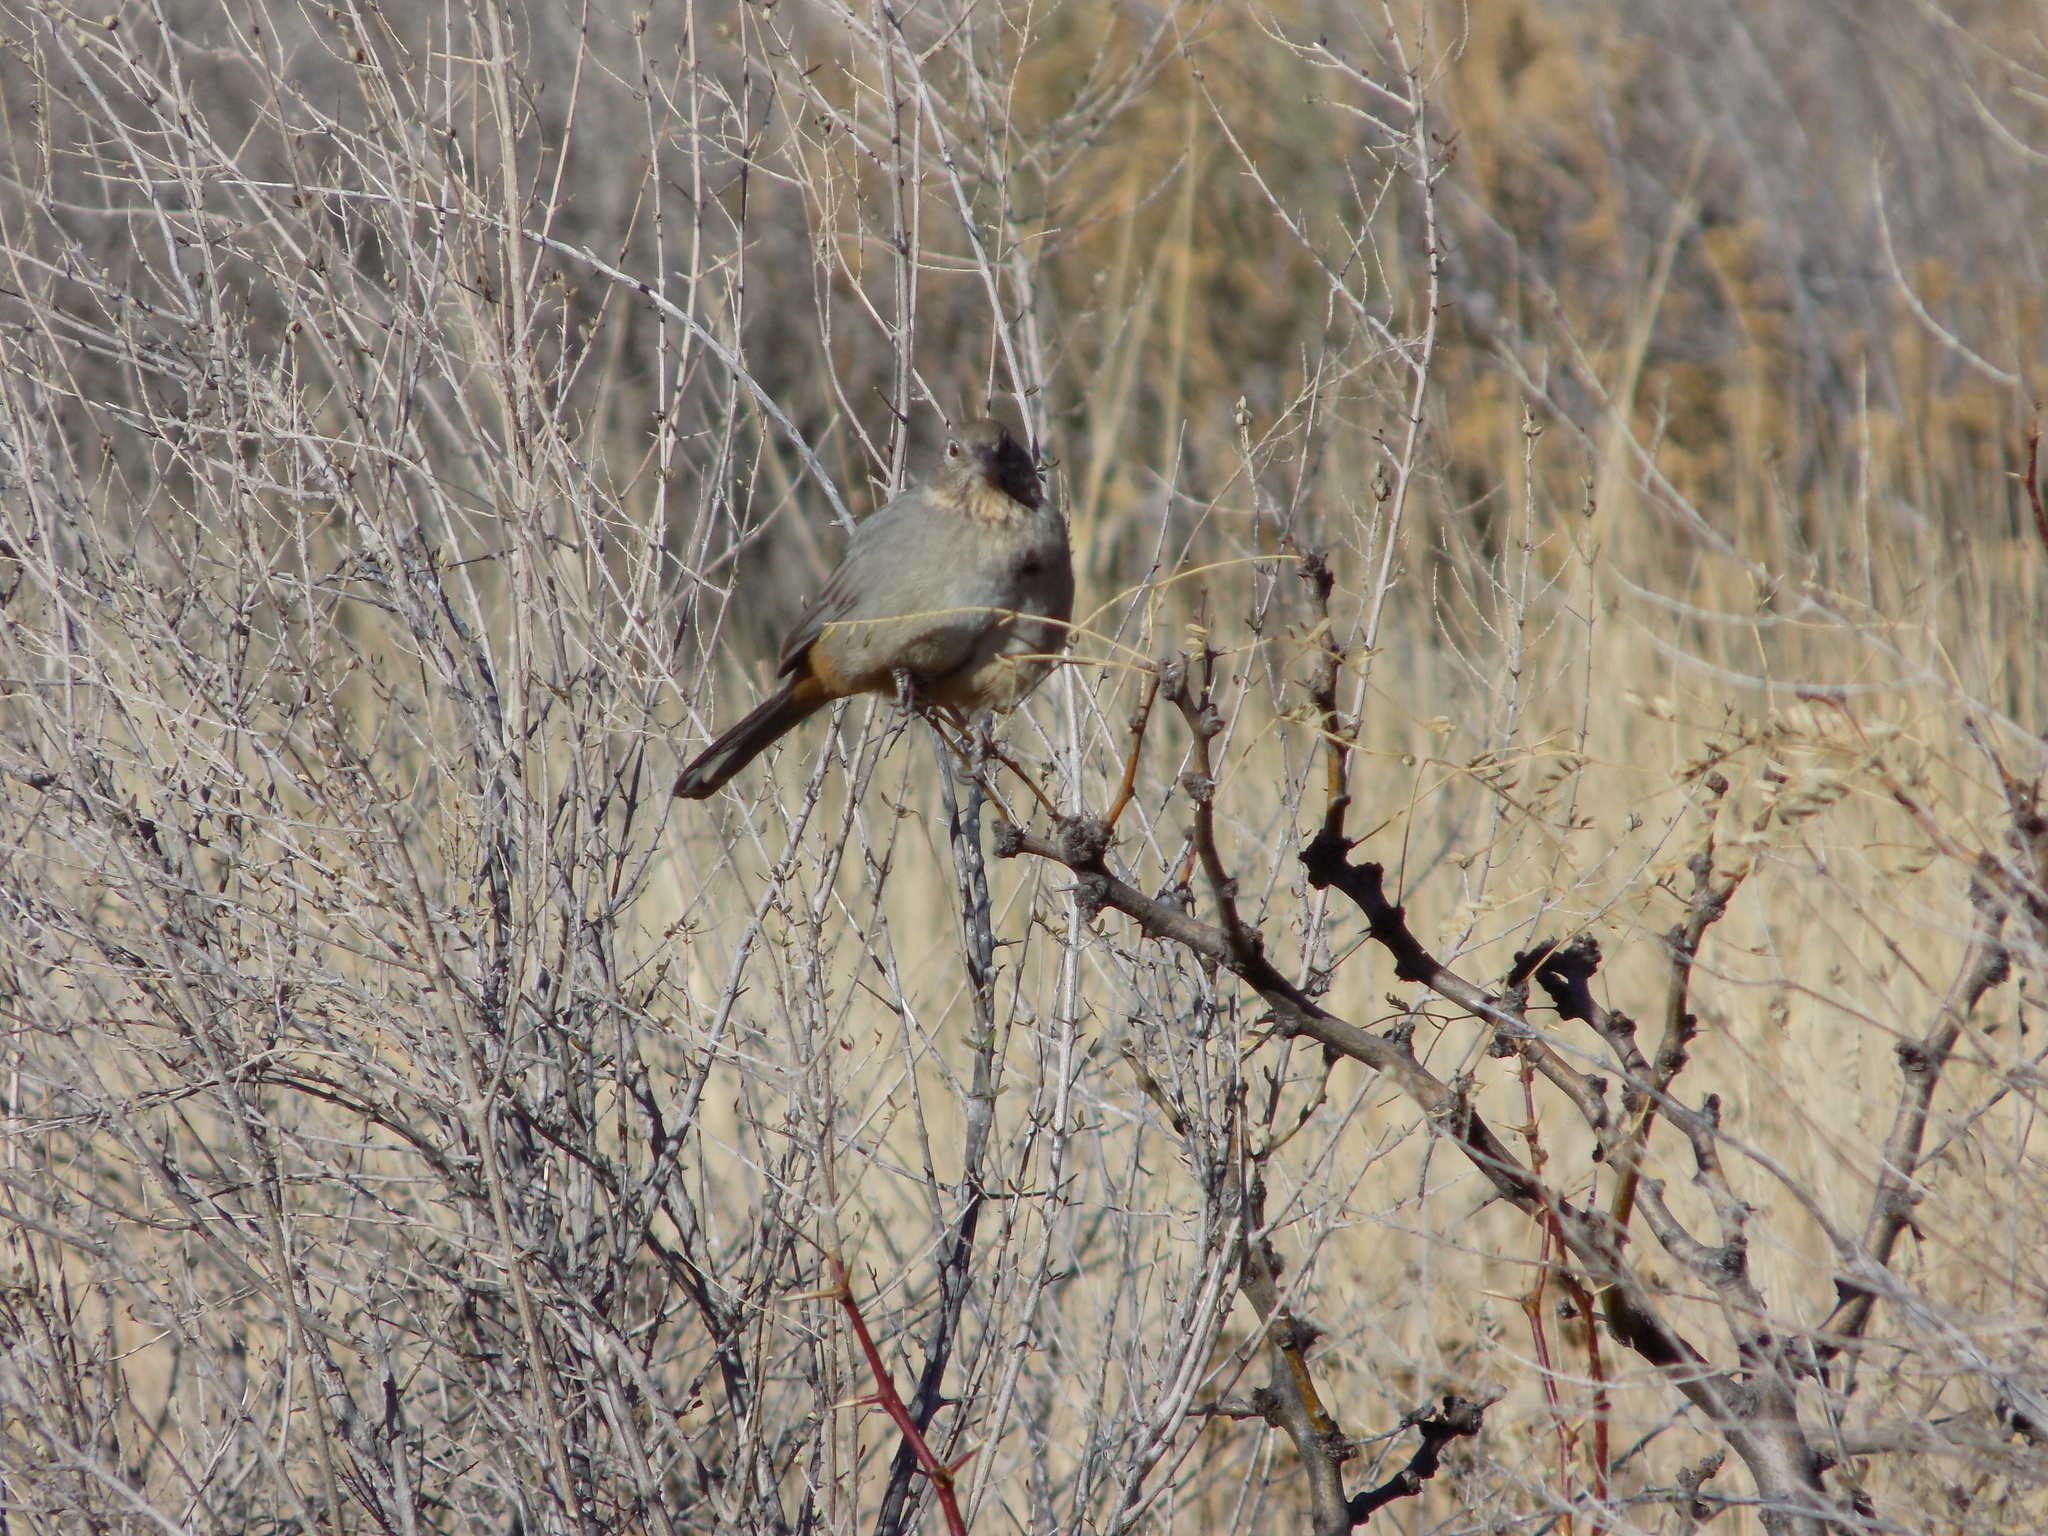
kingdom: Animalia
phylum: Chordata
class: Aves
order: Passeriformes
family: Passerellidae
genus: Melozone
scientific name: Melozone fusca
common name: Canyon towhee
